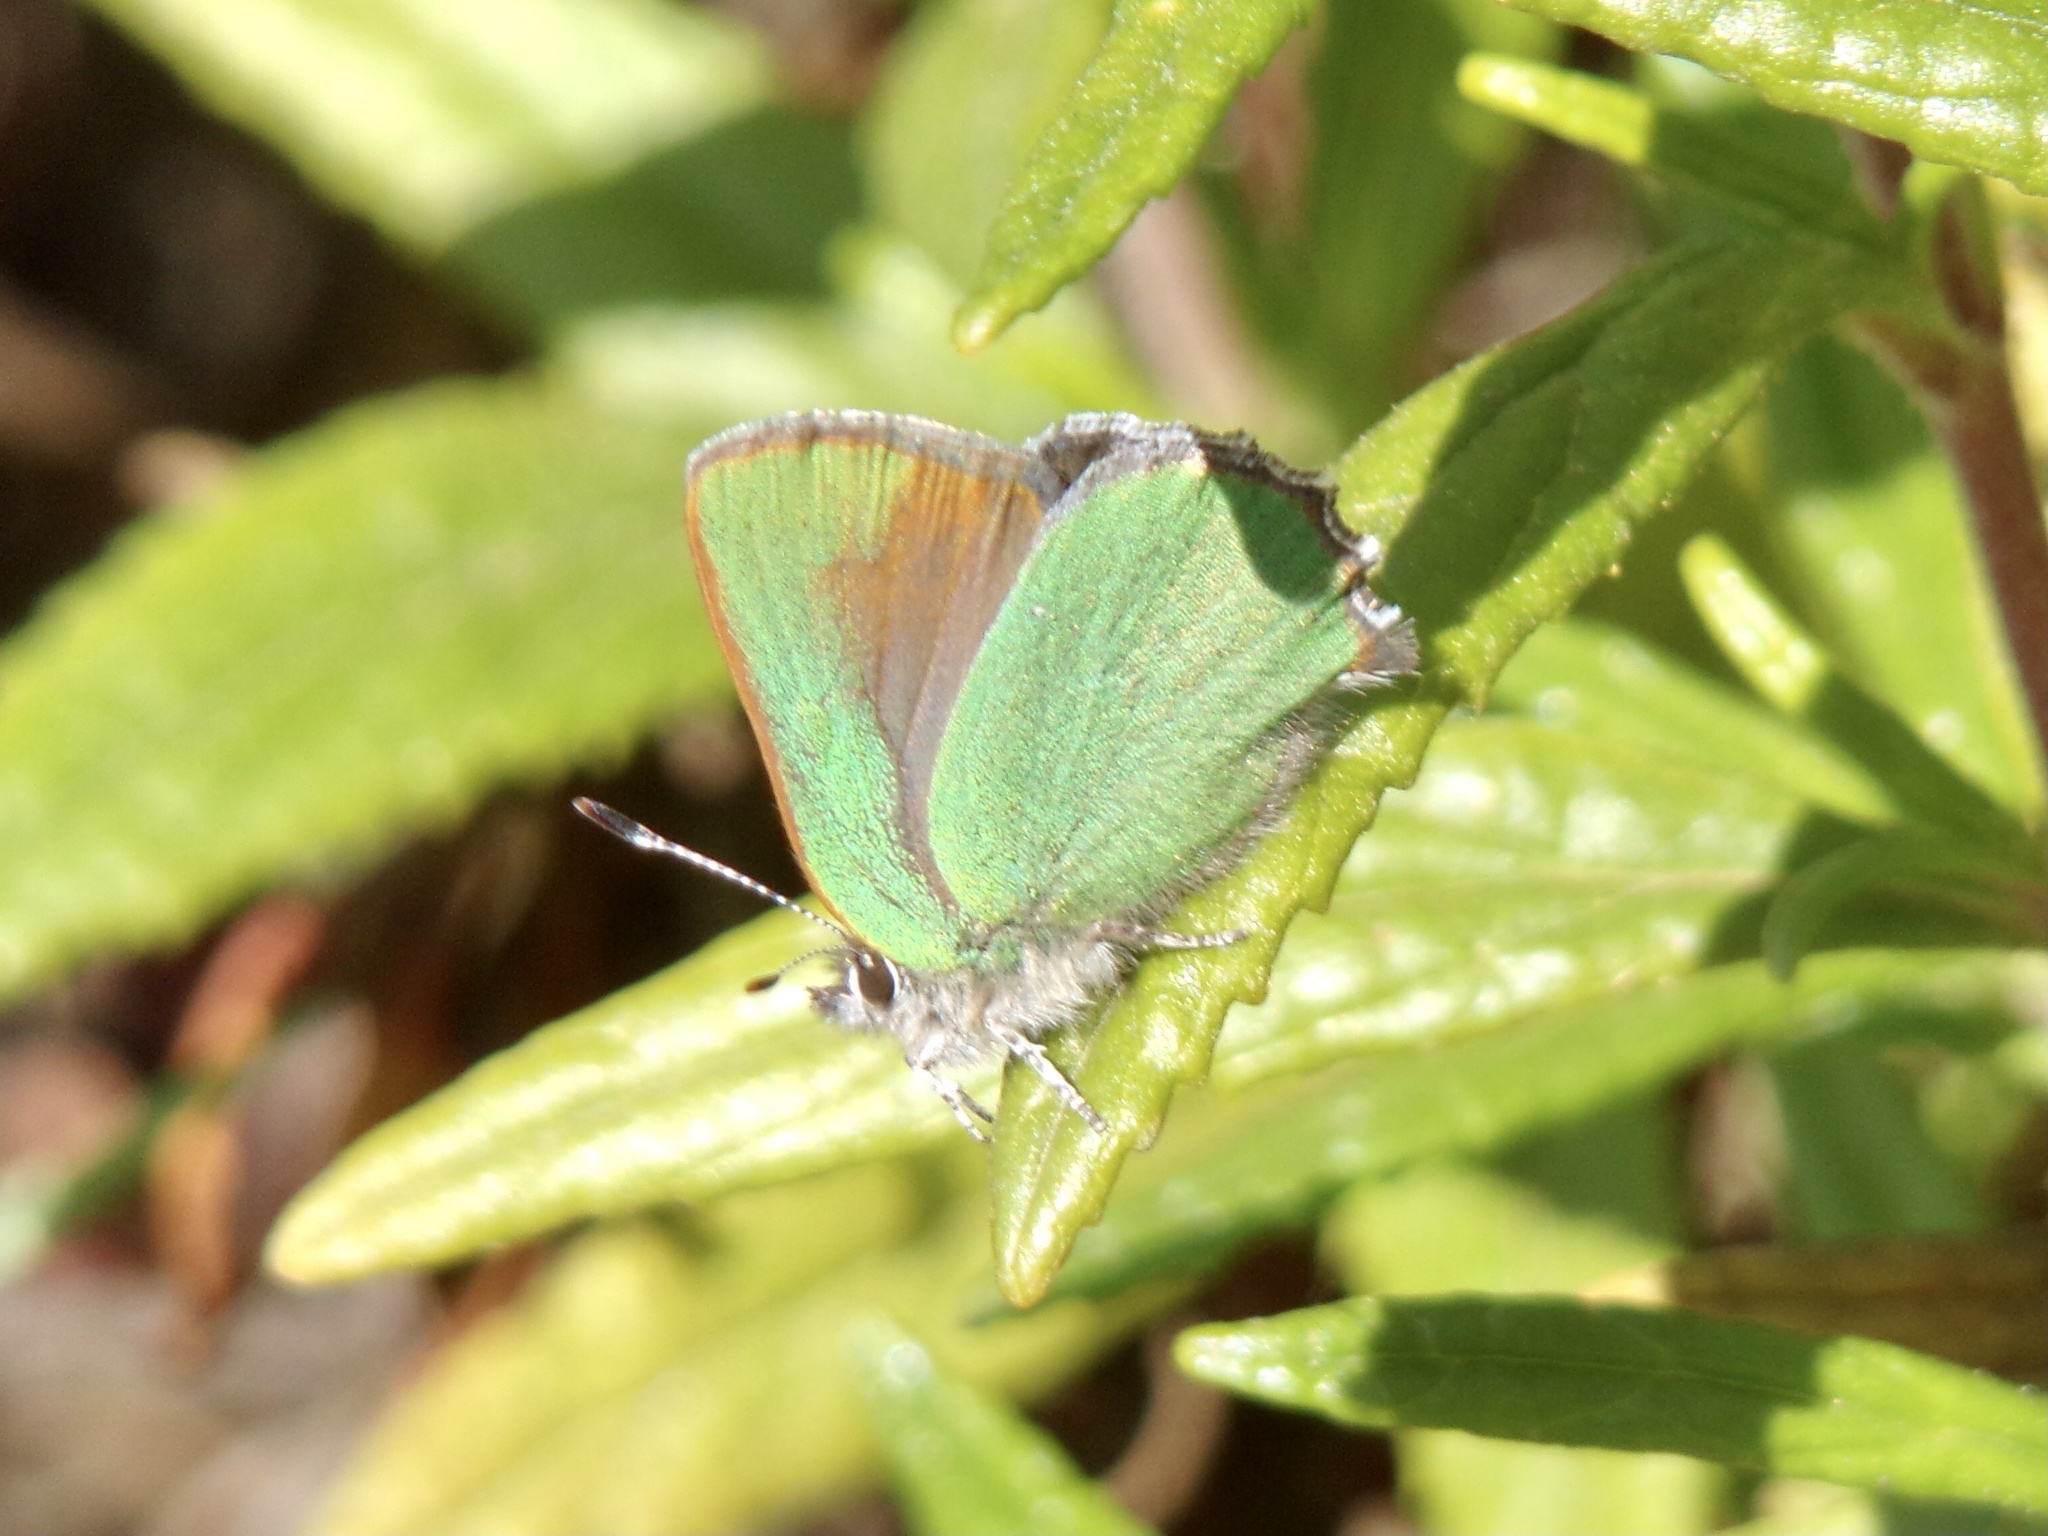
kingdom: Animalia
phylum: Arthropoda
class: Insecta
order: Lepidoptera
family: Lycaenidae
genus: Callophrys
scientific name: Callophrys dumetorum
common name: Bramble hairstreak
